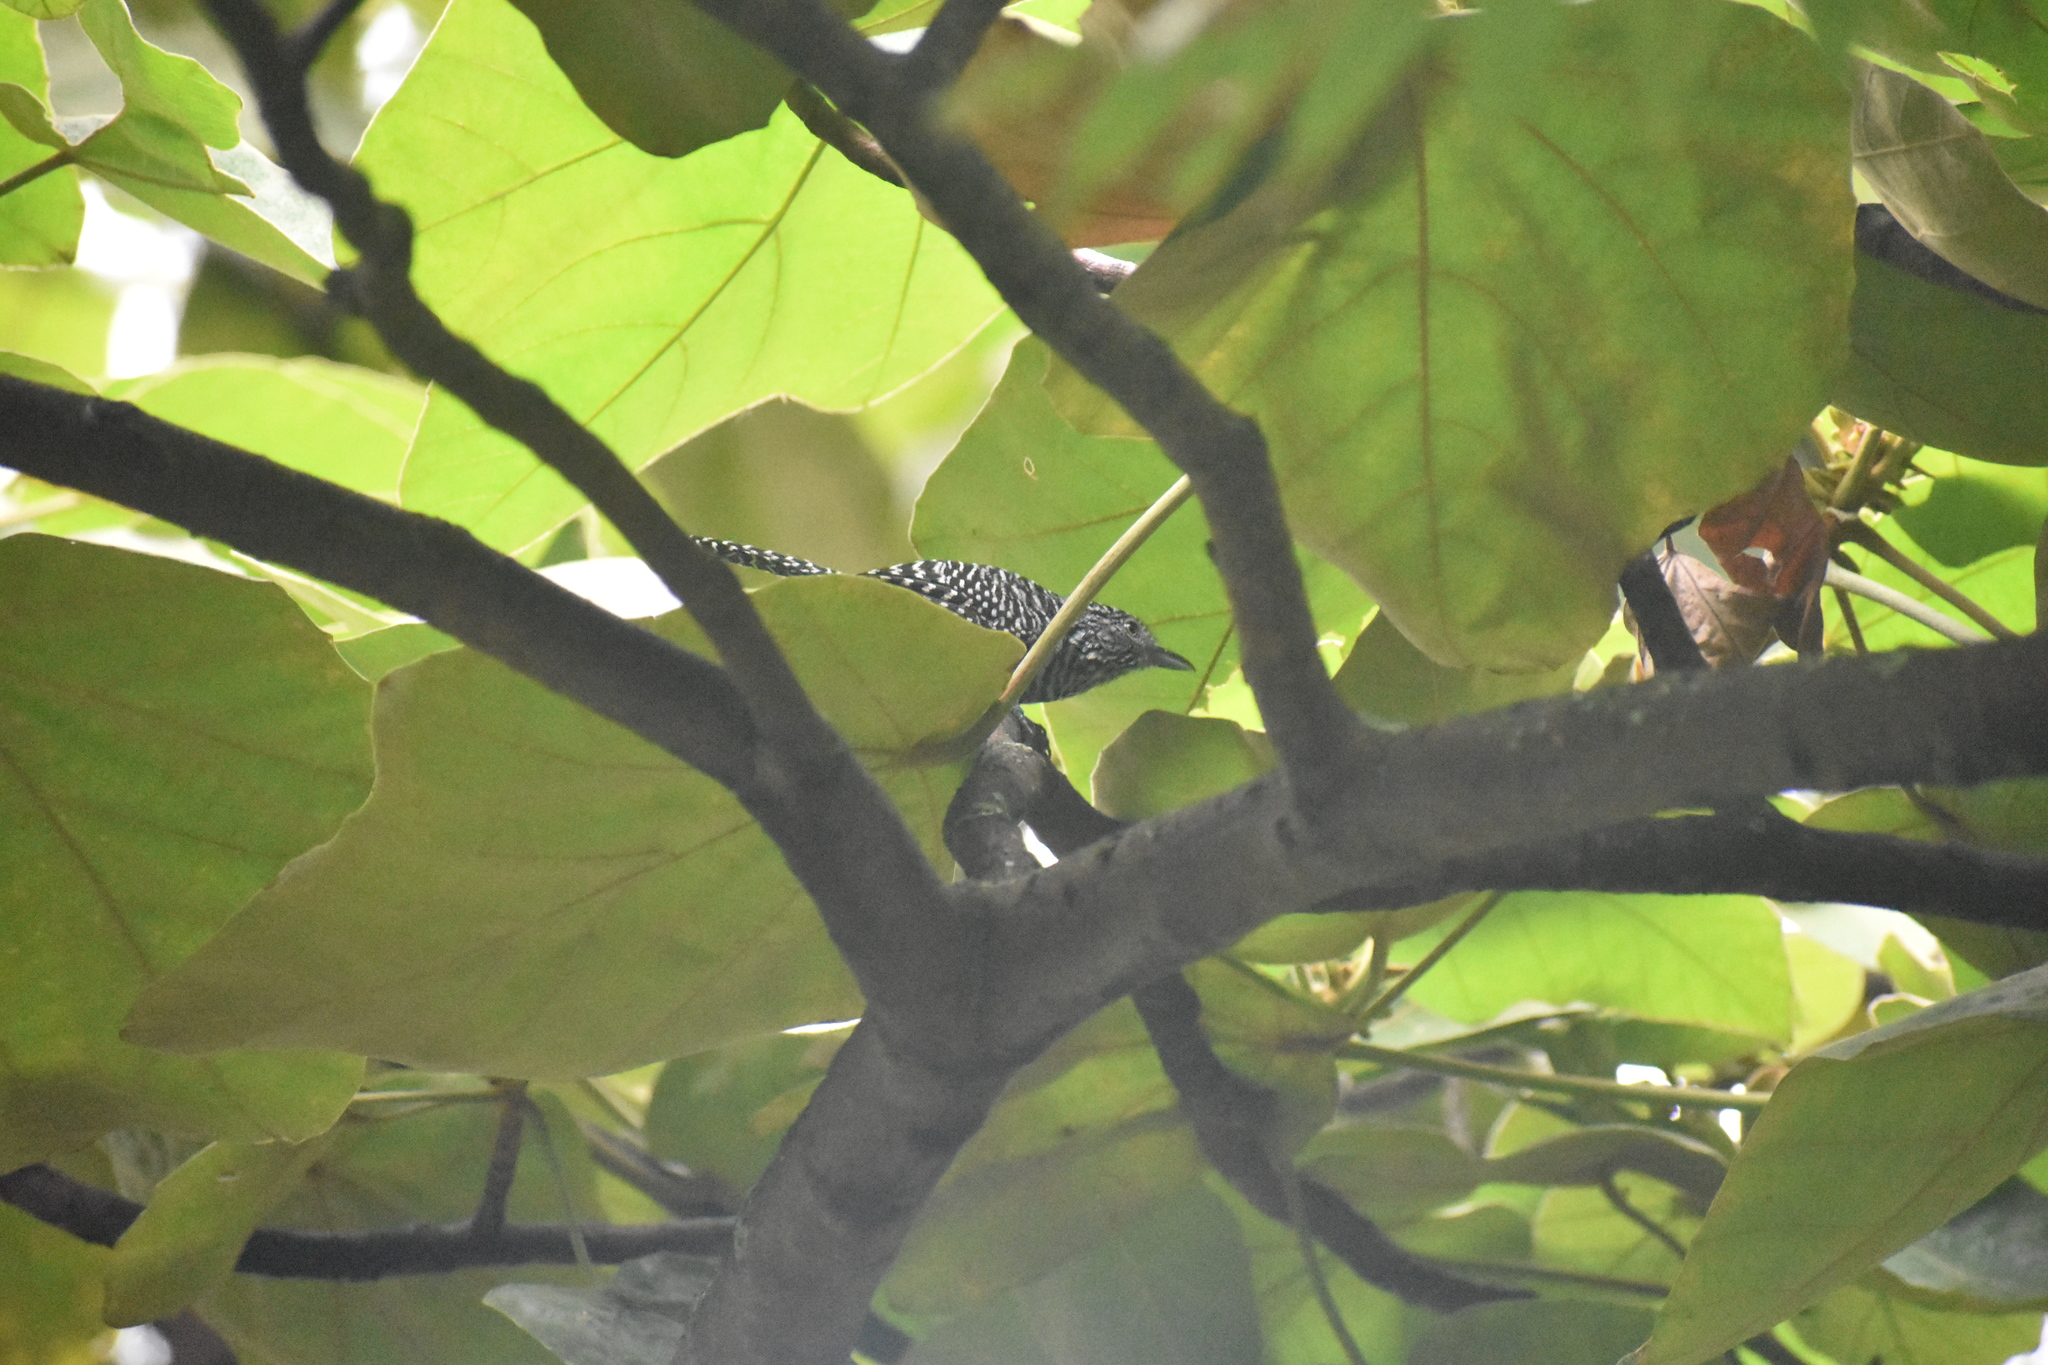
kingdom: Animalia
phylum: Chordata
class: Aves
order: Passeriformes
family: Thamnophilidae
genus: Thamnophilus
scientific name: Thamnophilus multistriatus
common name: Bar-crested antshrike
